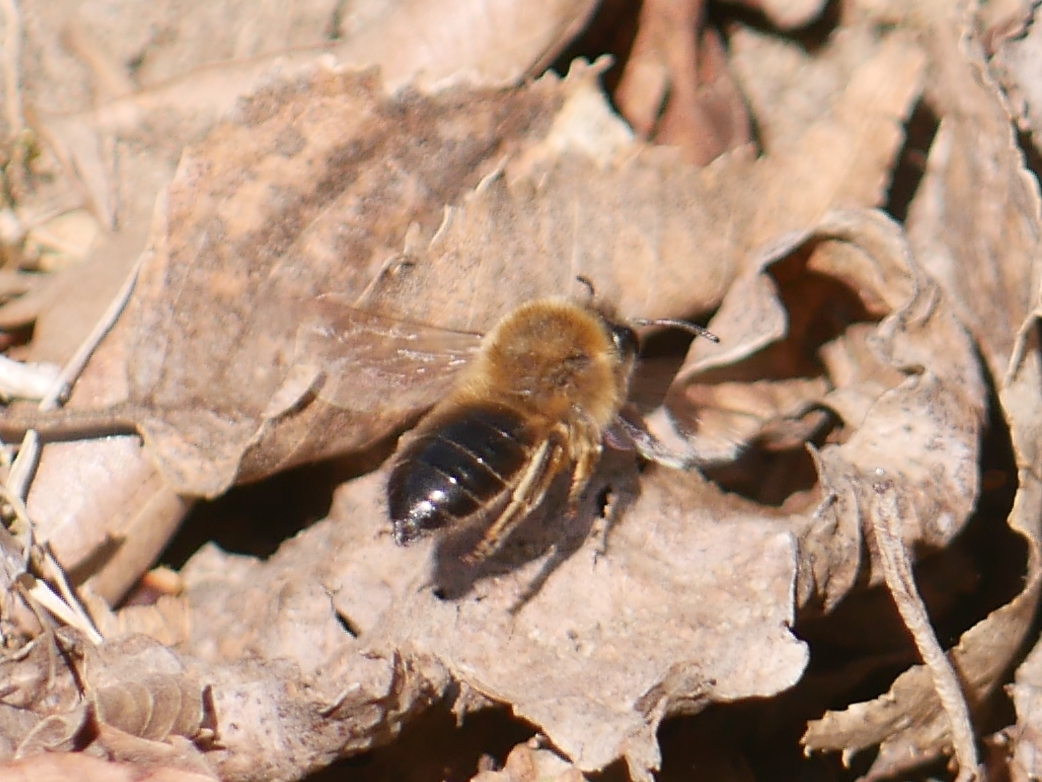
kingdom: Animalia
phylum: Arthropoda
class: Insecta
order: Hymenoptera
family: Colletidae
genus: Colletes
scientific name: Colletes cunicularius
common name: Early colletes
